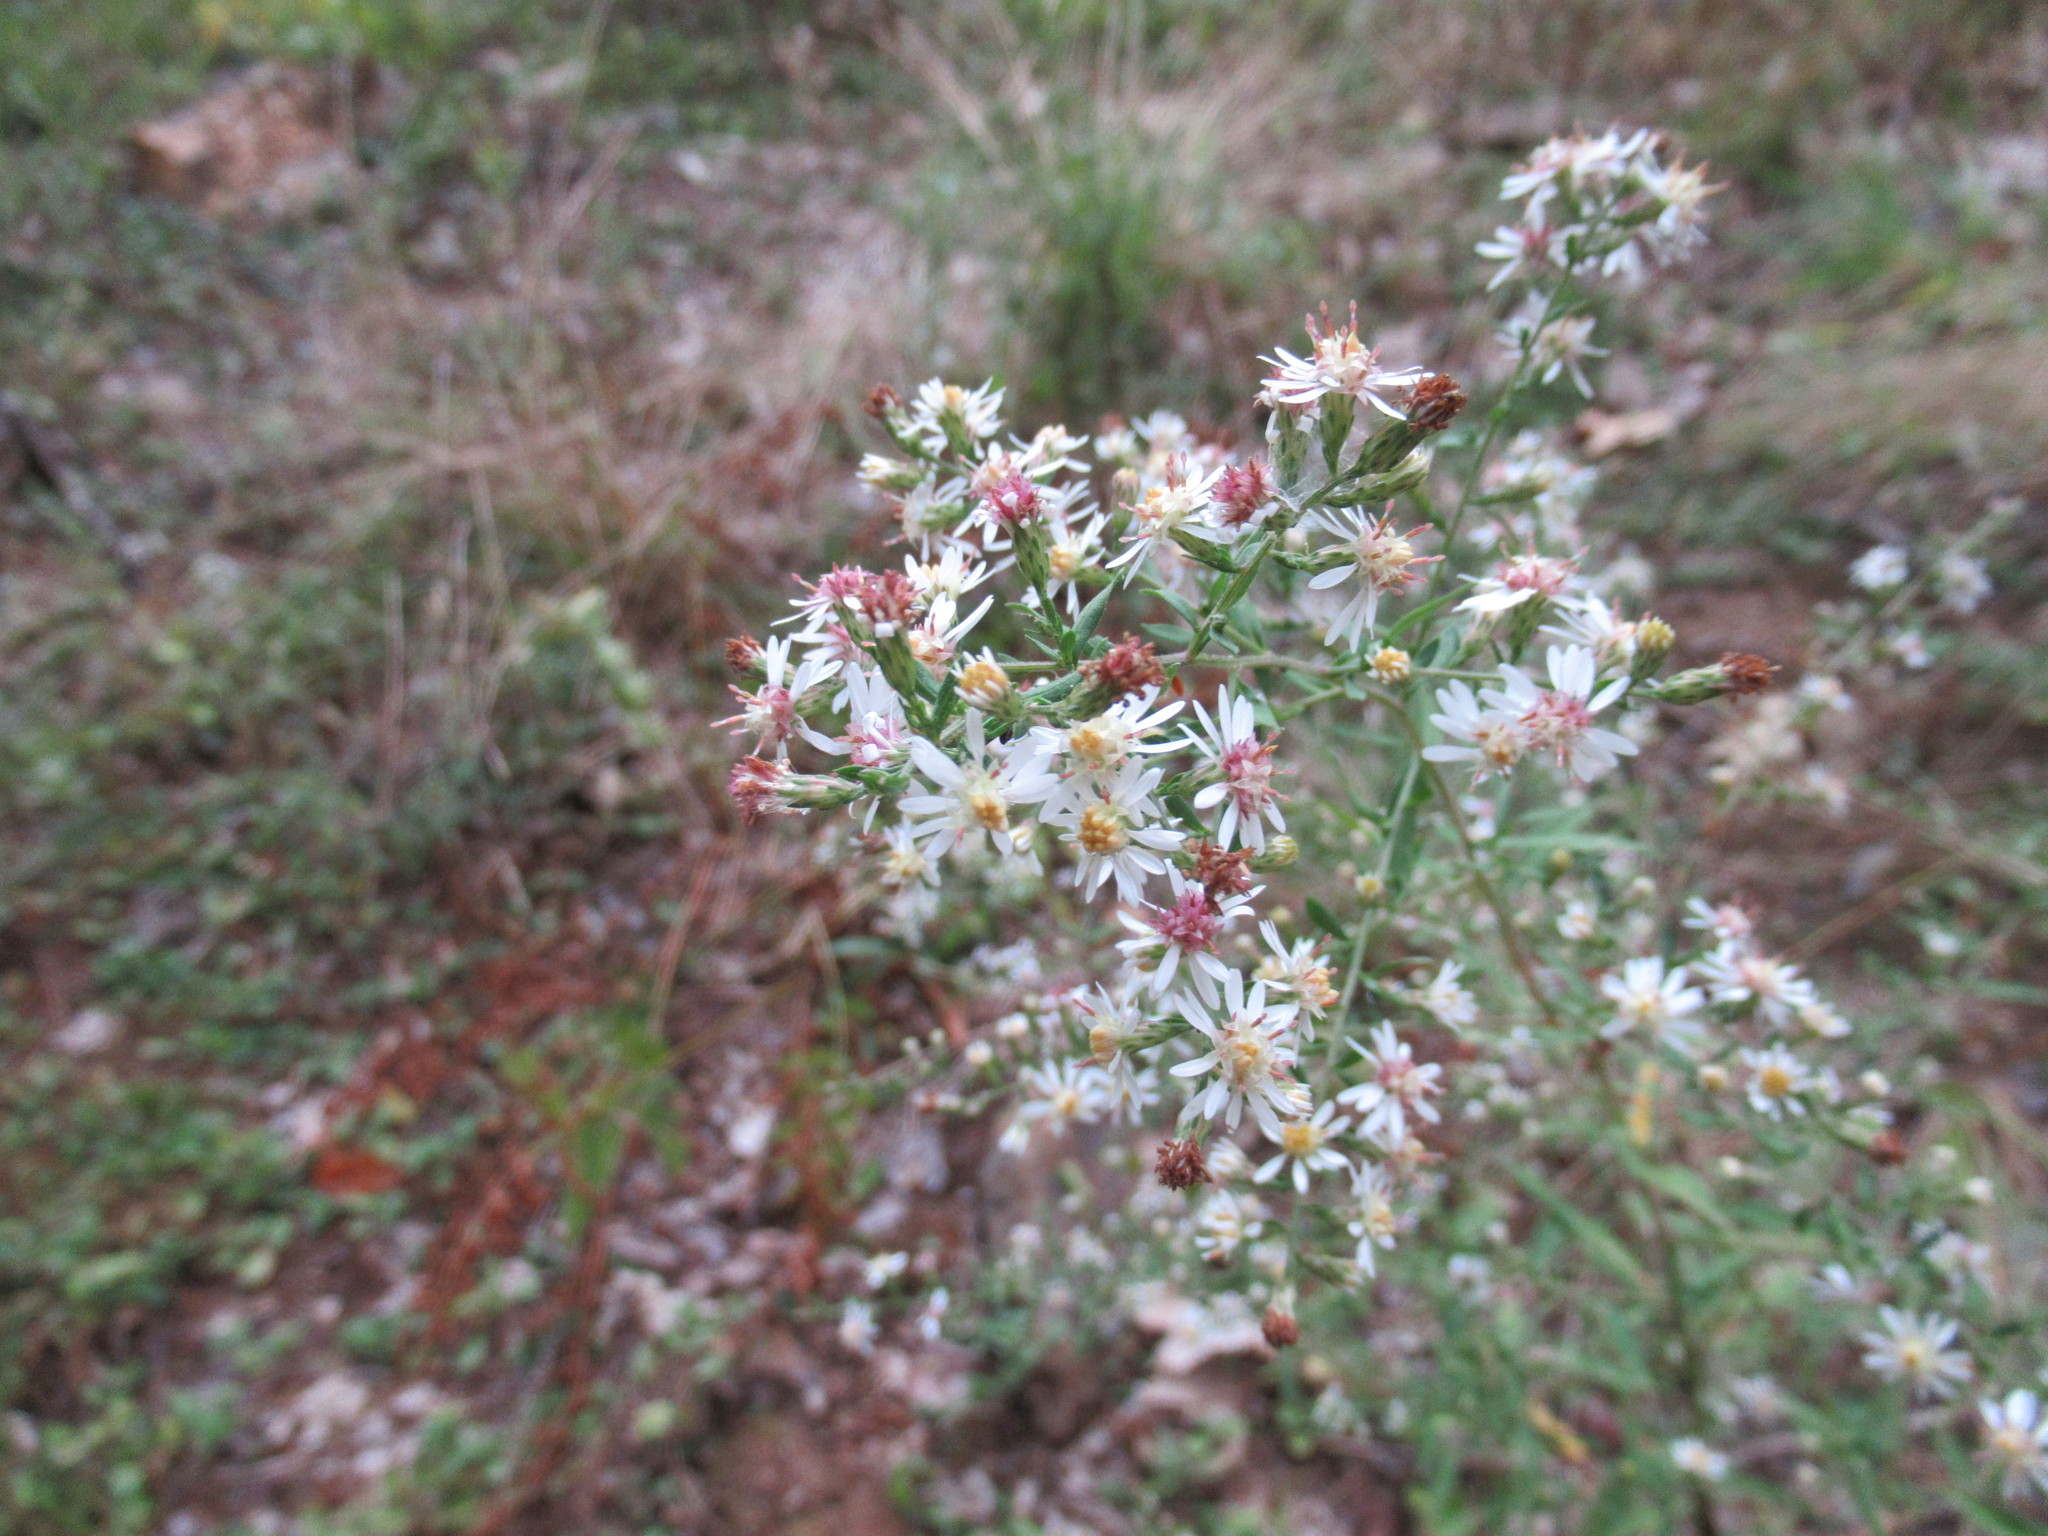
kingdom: Plantae
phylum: Tracheophyta
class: Magnoliopsida
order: Asterales
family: Asteraceae
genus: Symphyotrichum
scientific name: Symphyotrichum lateriflorum
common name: Calico aster
